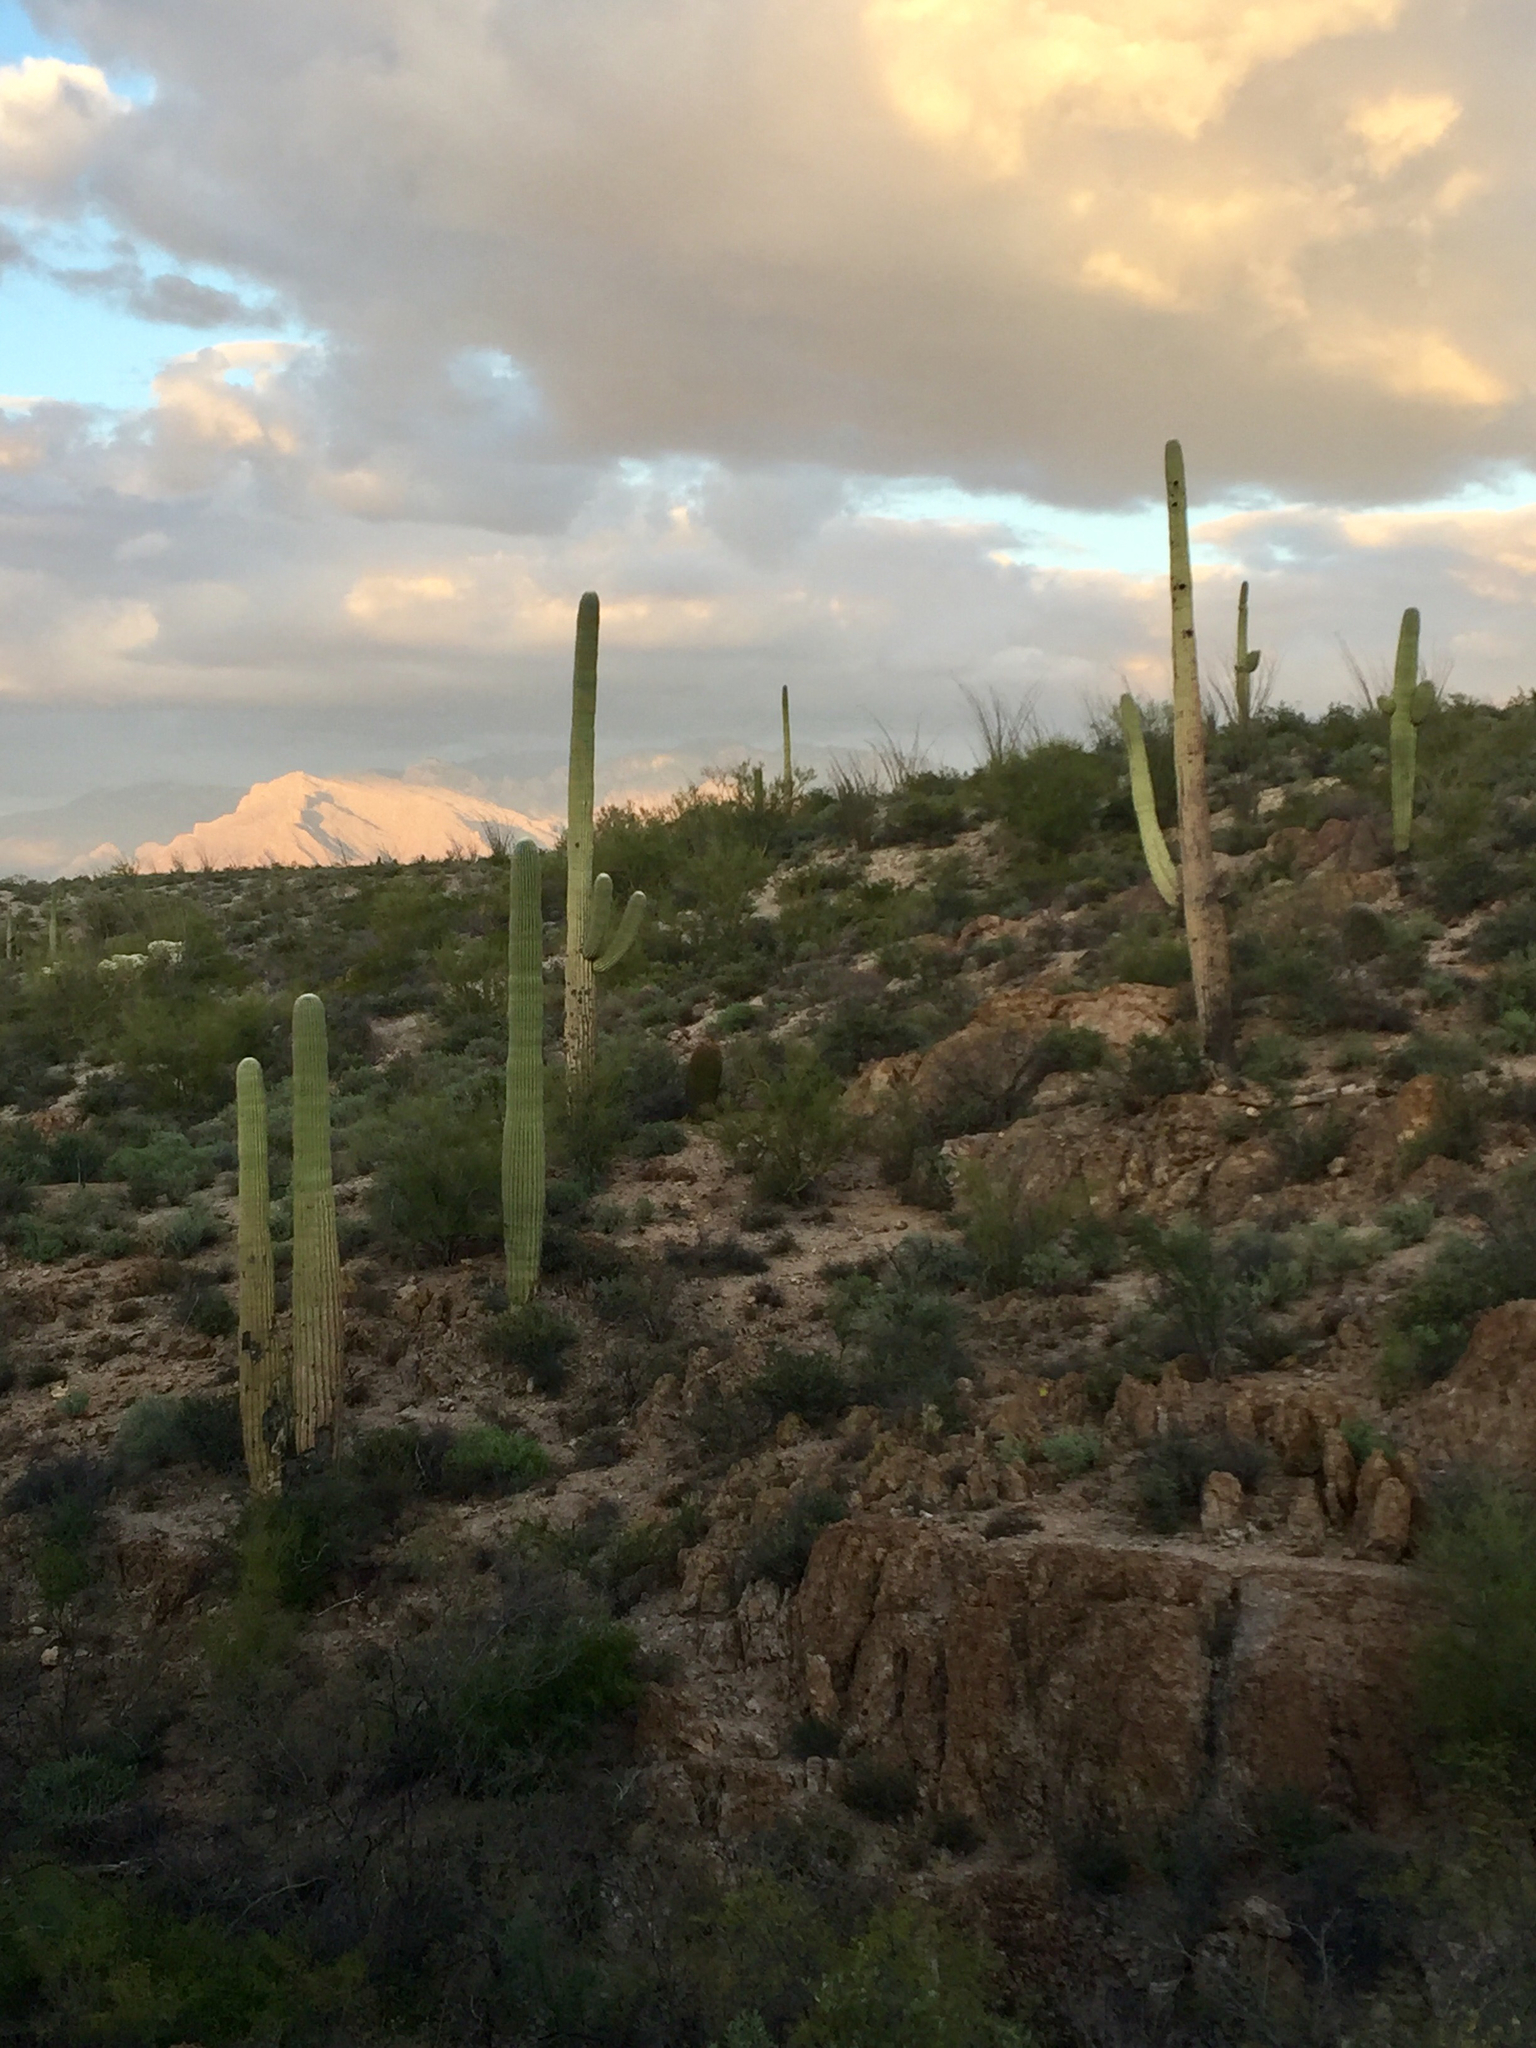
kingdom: Plantae
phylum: Tracheophyta
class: Magnoliopsida
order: Caryophyllales
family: Cactaceae
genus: Carnegiea
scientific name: Carnegiea gigantea
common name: Saguaro
